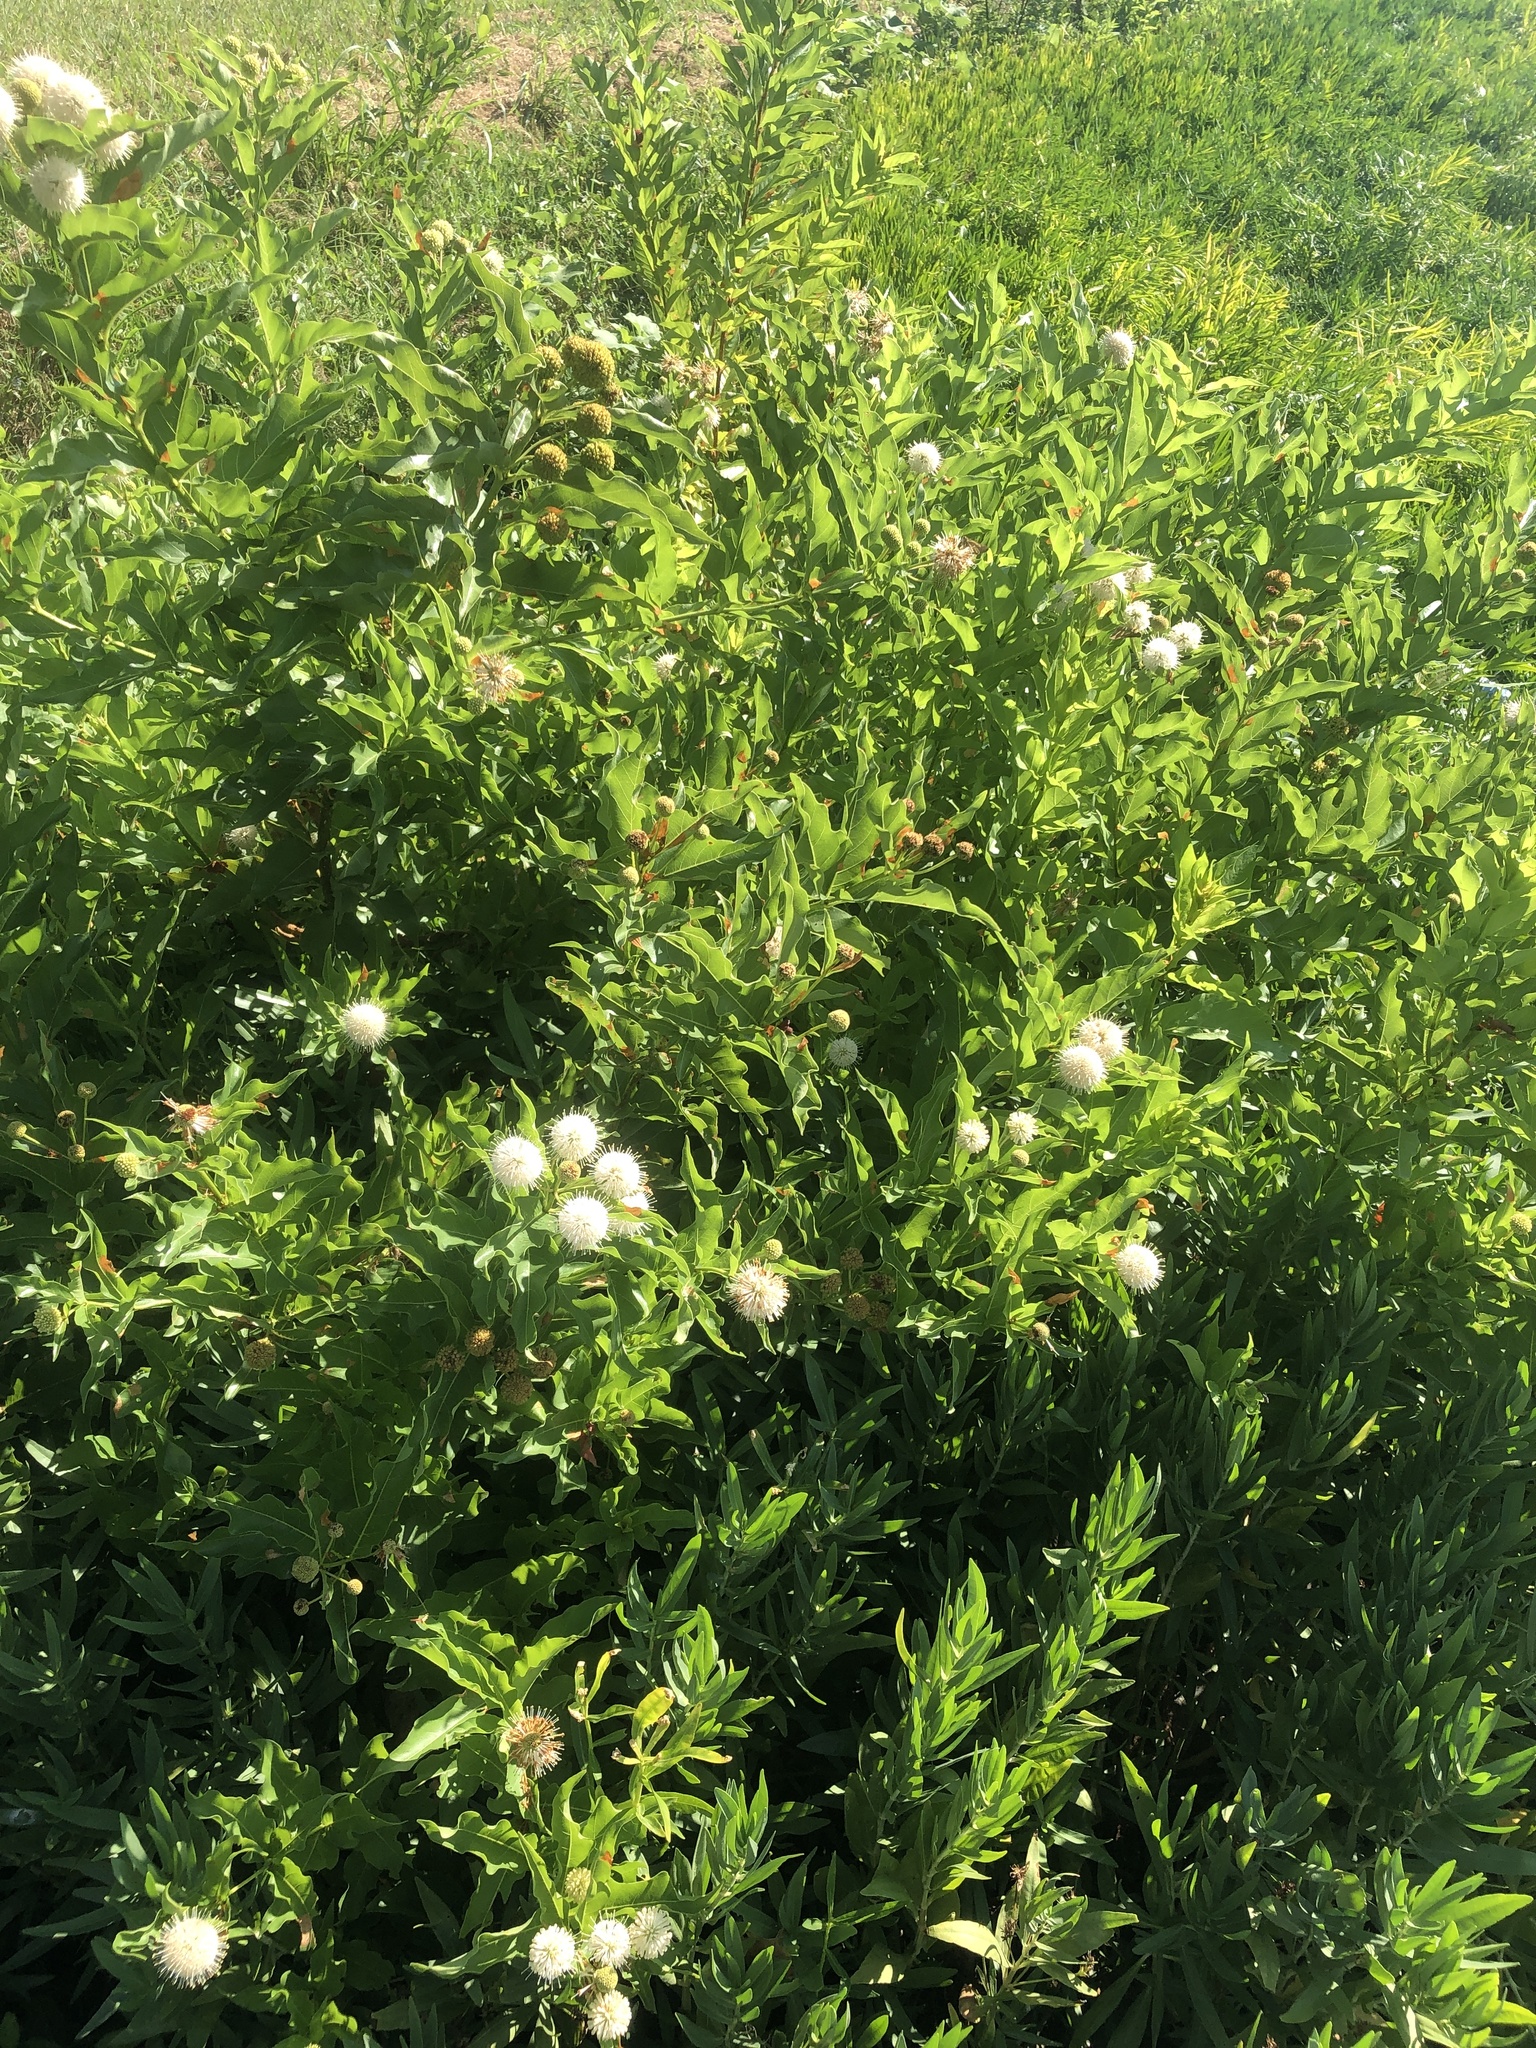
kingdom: Plantae
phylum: Tracheophyta
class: Magnoliopsida
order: Gentianales
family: Rubiaceae
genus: Cephalanthus
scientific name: Cephalanthus occidentalis
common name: Button-willow
